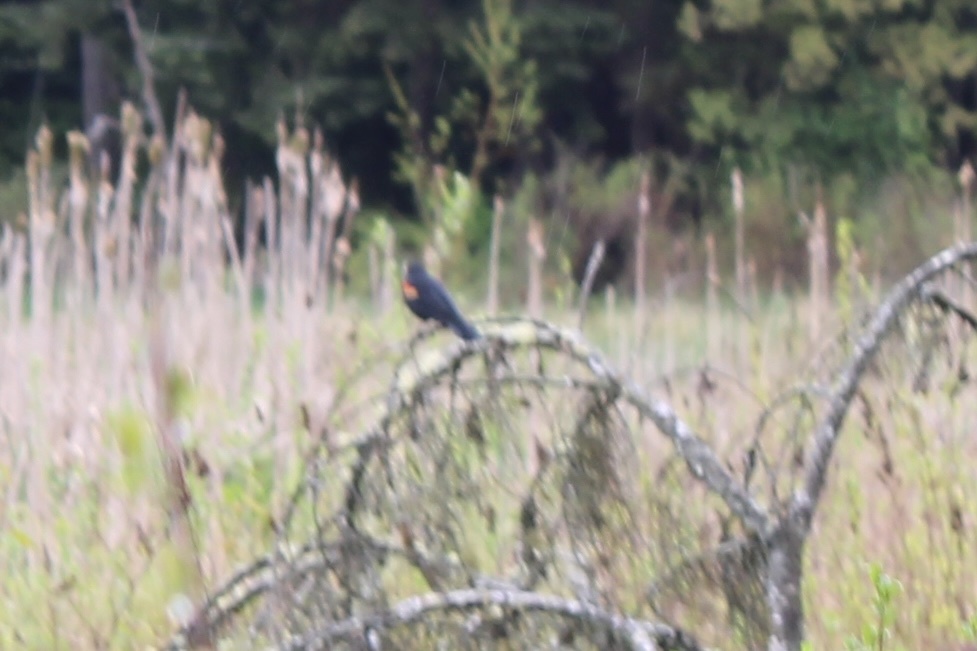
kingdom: Animalia
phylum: Chordata
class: Aves
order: Passeriformes
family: Icteridae
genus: Agelaius
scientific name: Agelaius phoeniceus
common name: Red-winged blackbird
